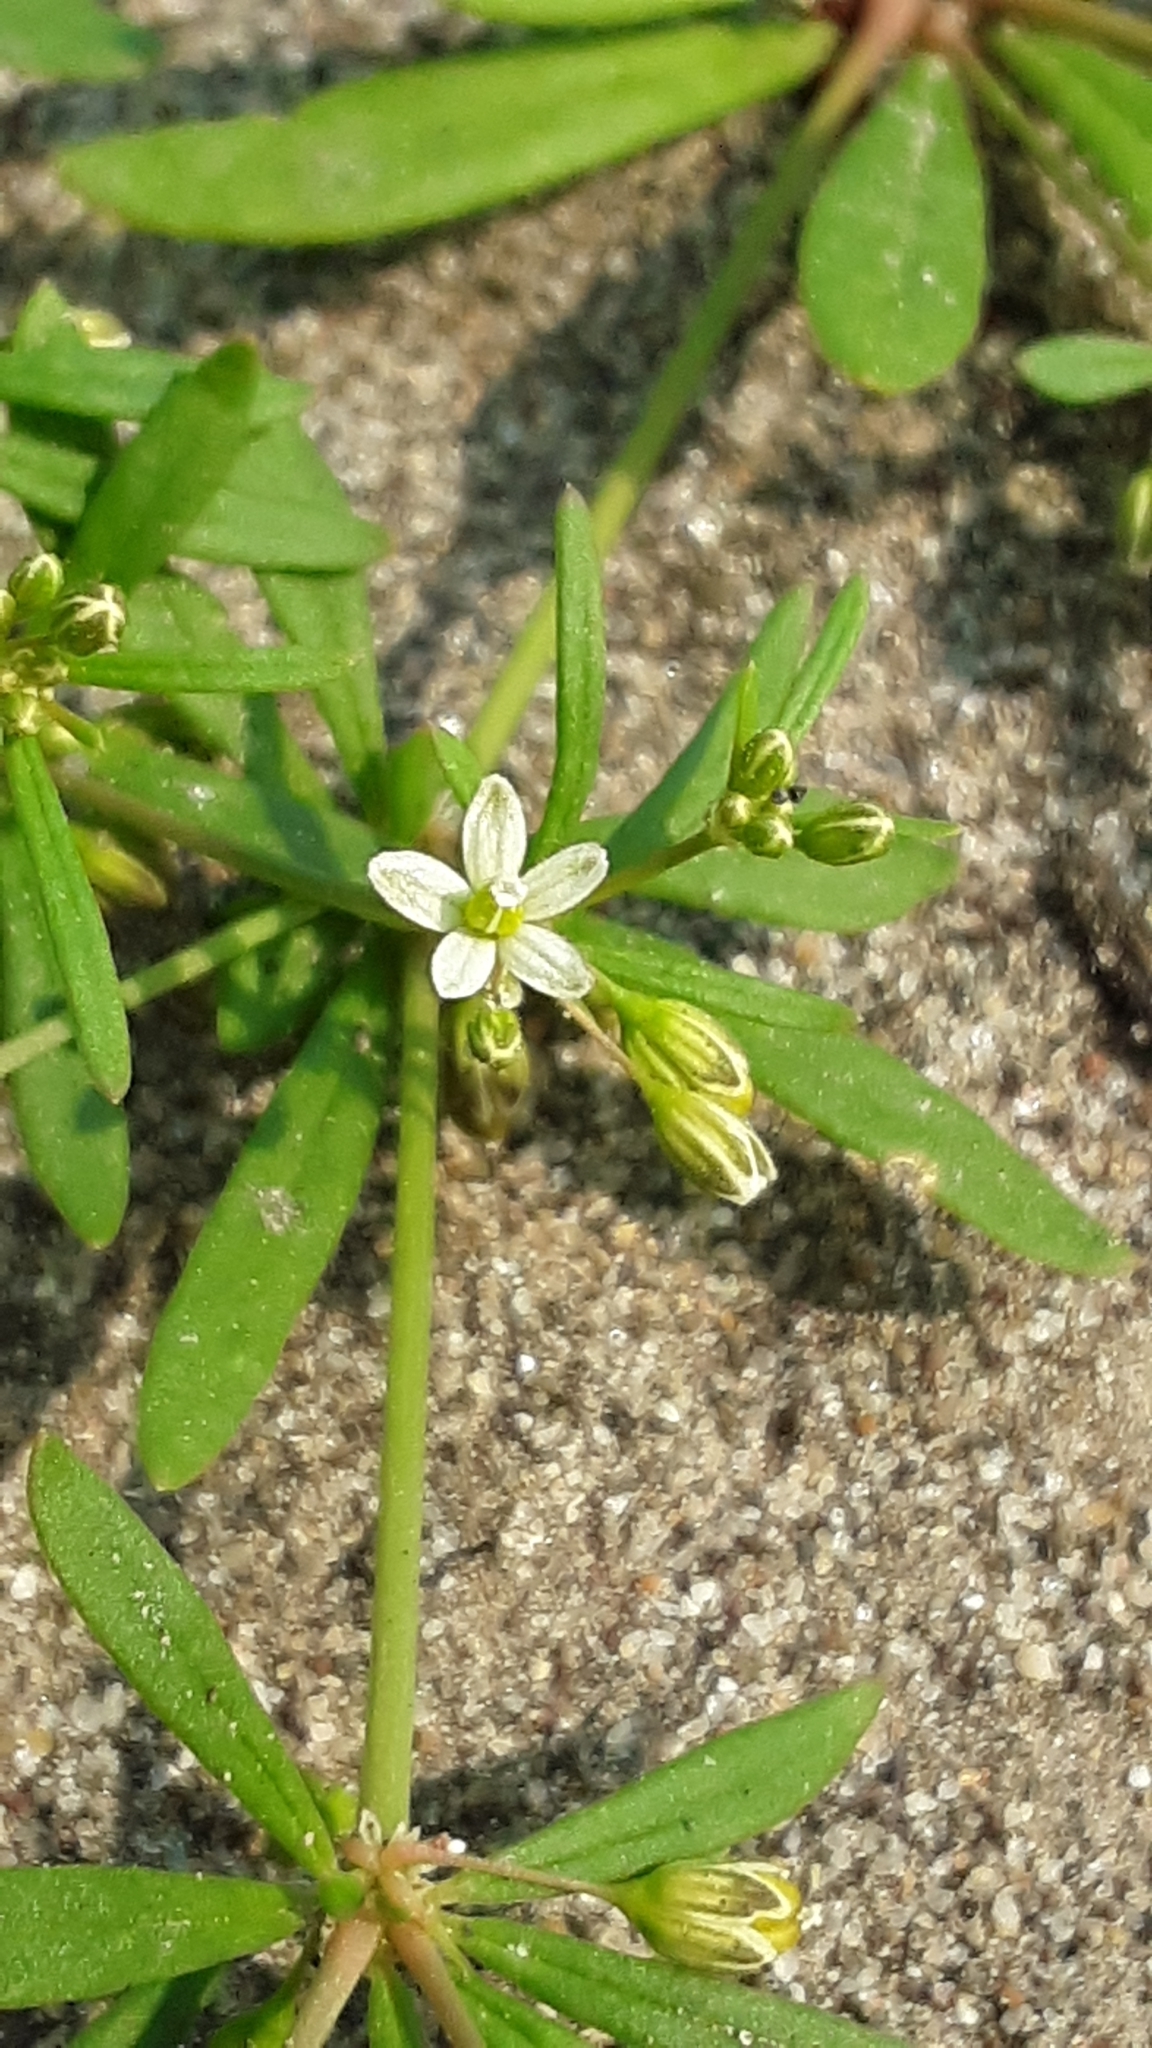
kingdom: Plantae
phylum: Tracheophyta
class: Magnoliopsida
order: Caryophyllales
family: Molluginaceae
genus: Mollugo
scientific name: Mollugo verticillata
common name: Green carpetweed
